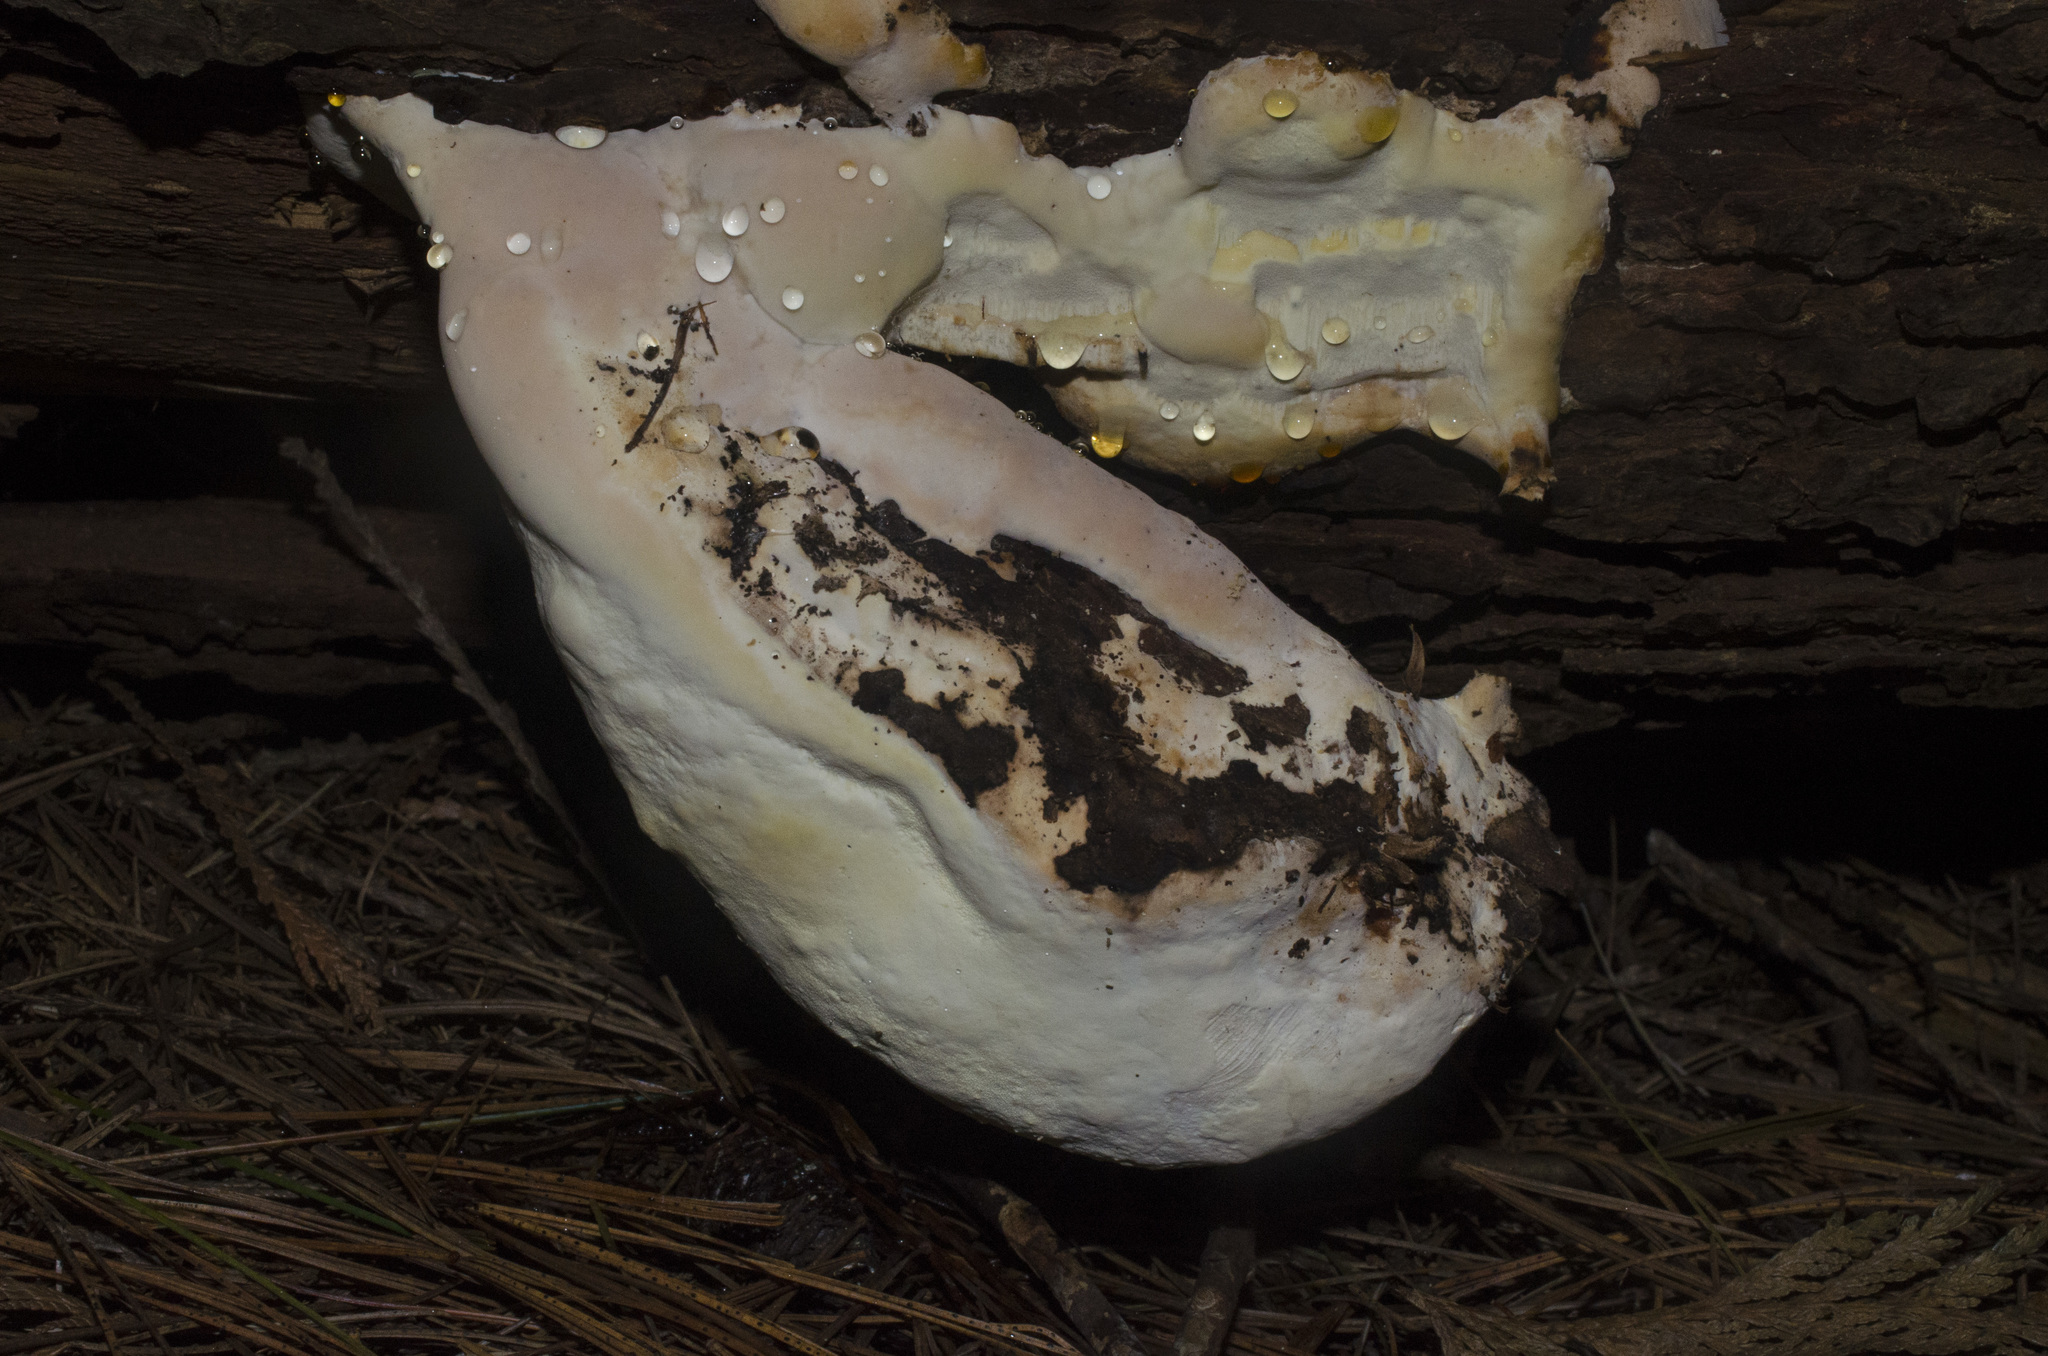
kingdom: Fungi
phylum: Basidiomycota
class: Agaricomycetes
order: Polyporales
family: Fomitopsidaceae
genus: Fomitopsis
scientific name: Fomitopsis mounceae
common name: Northern red belt
